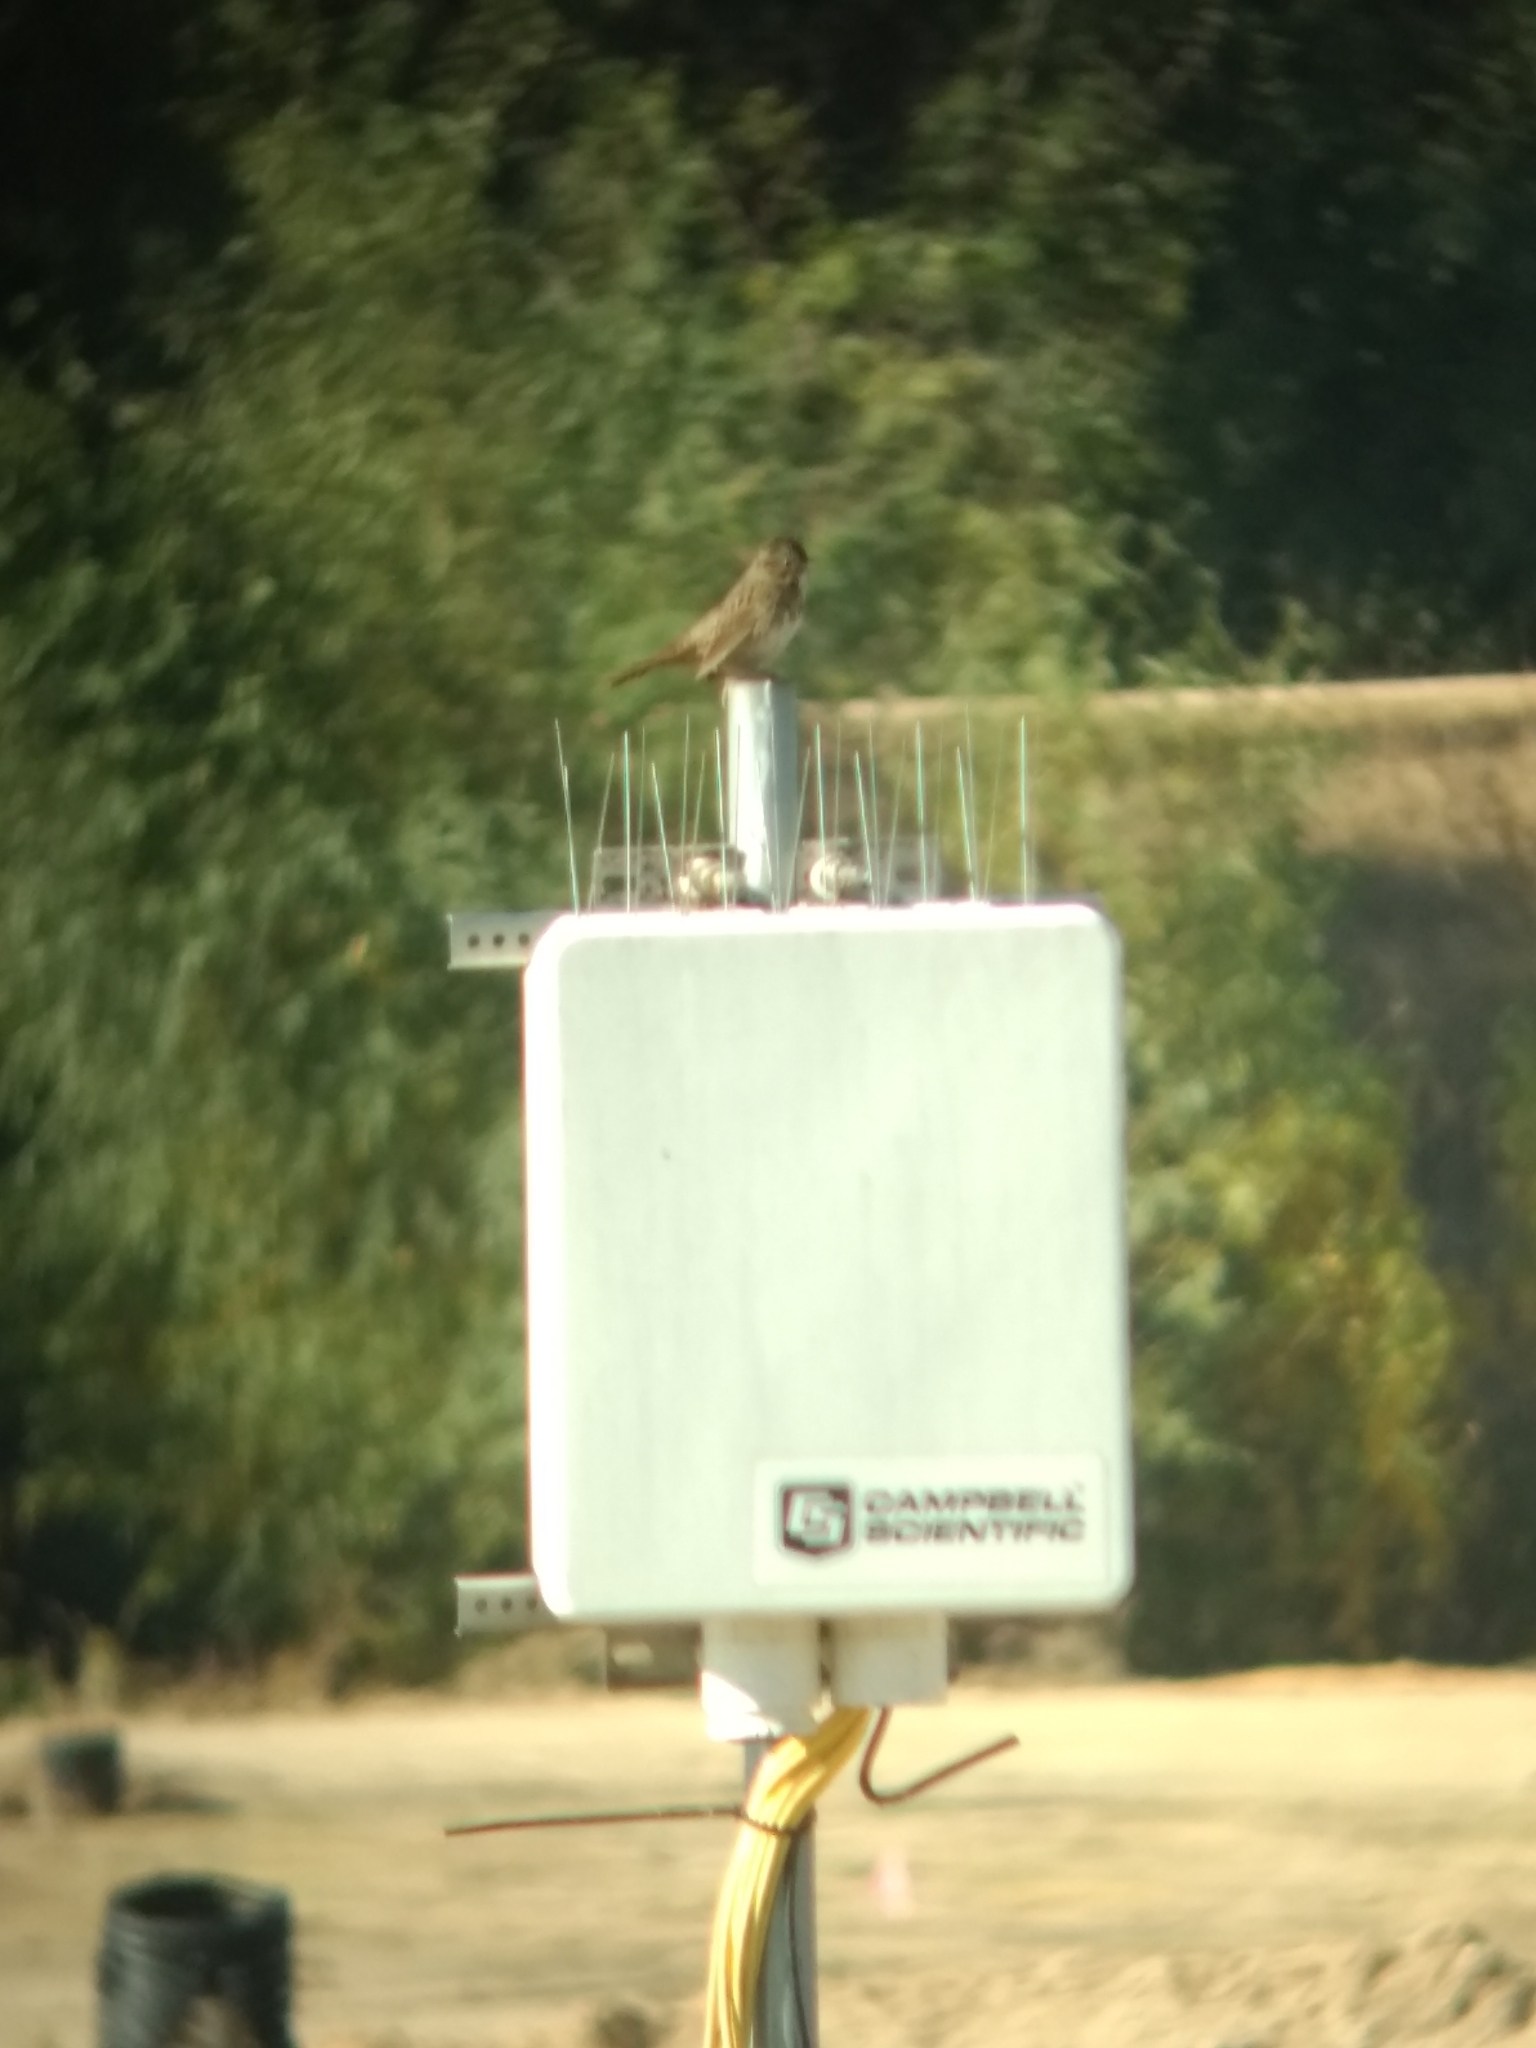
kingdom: Animalia
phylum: Chordata
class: Aves
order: Passeriformes
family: Passerellidae
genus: Melospiza
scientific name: Melospiza lincolnii
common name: Lincoln's sparrow
